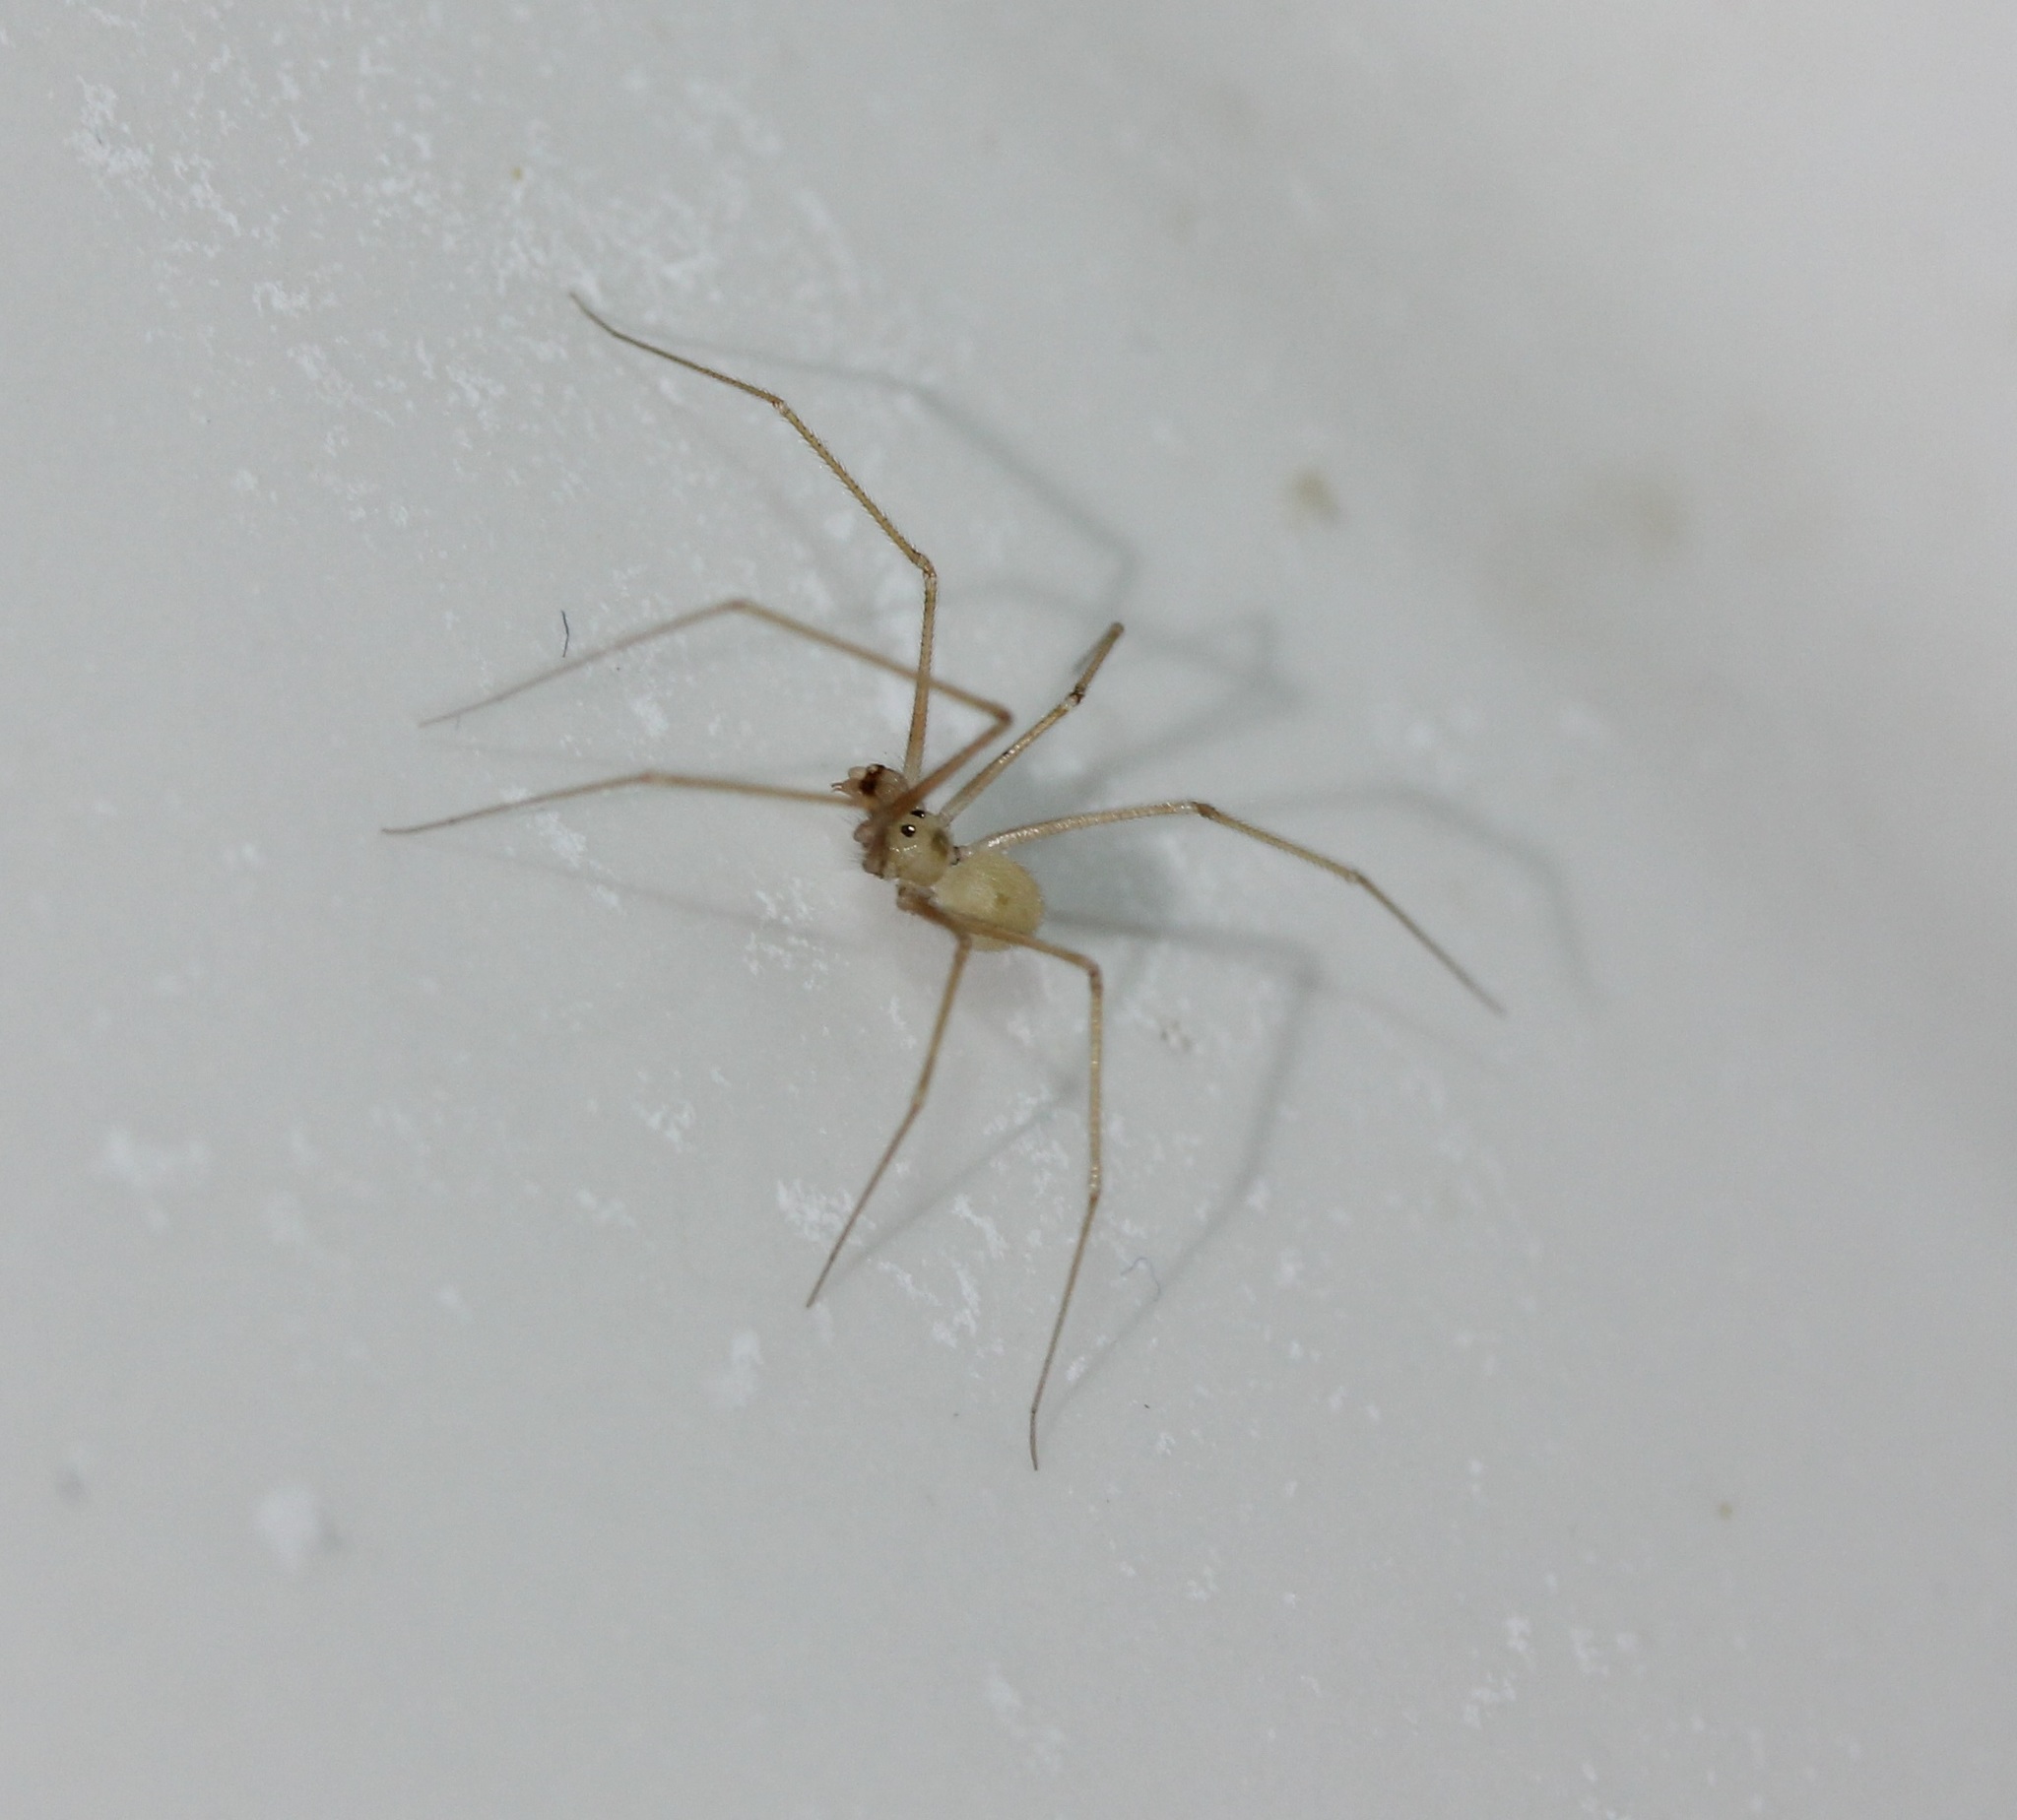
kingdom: Animalia
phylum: Arthropoda
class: Arachnida
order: Araneae
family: Pholcidae
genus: Spermophora
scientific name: Spermophora senoculata
